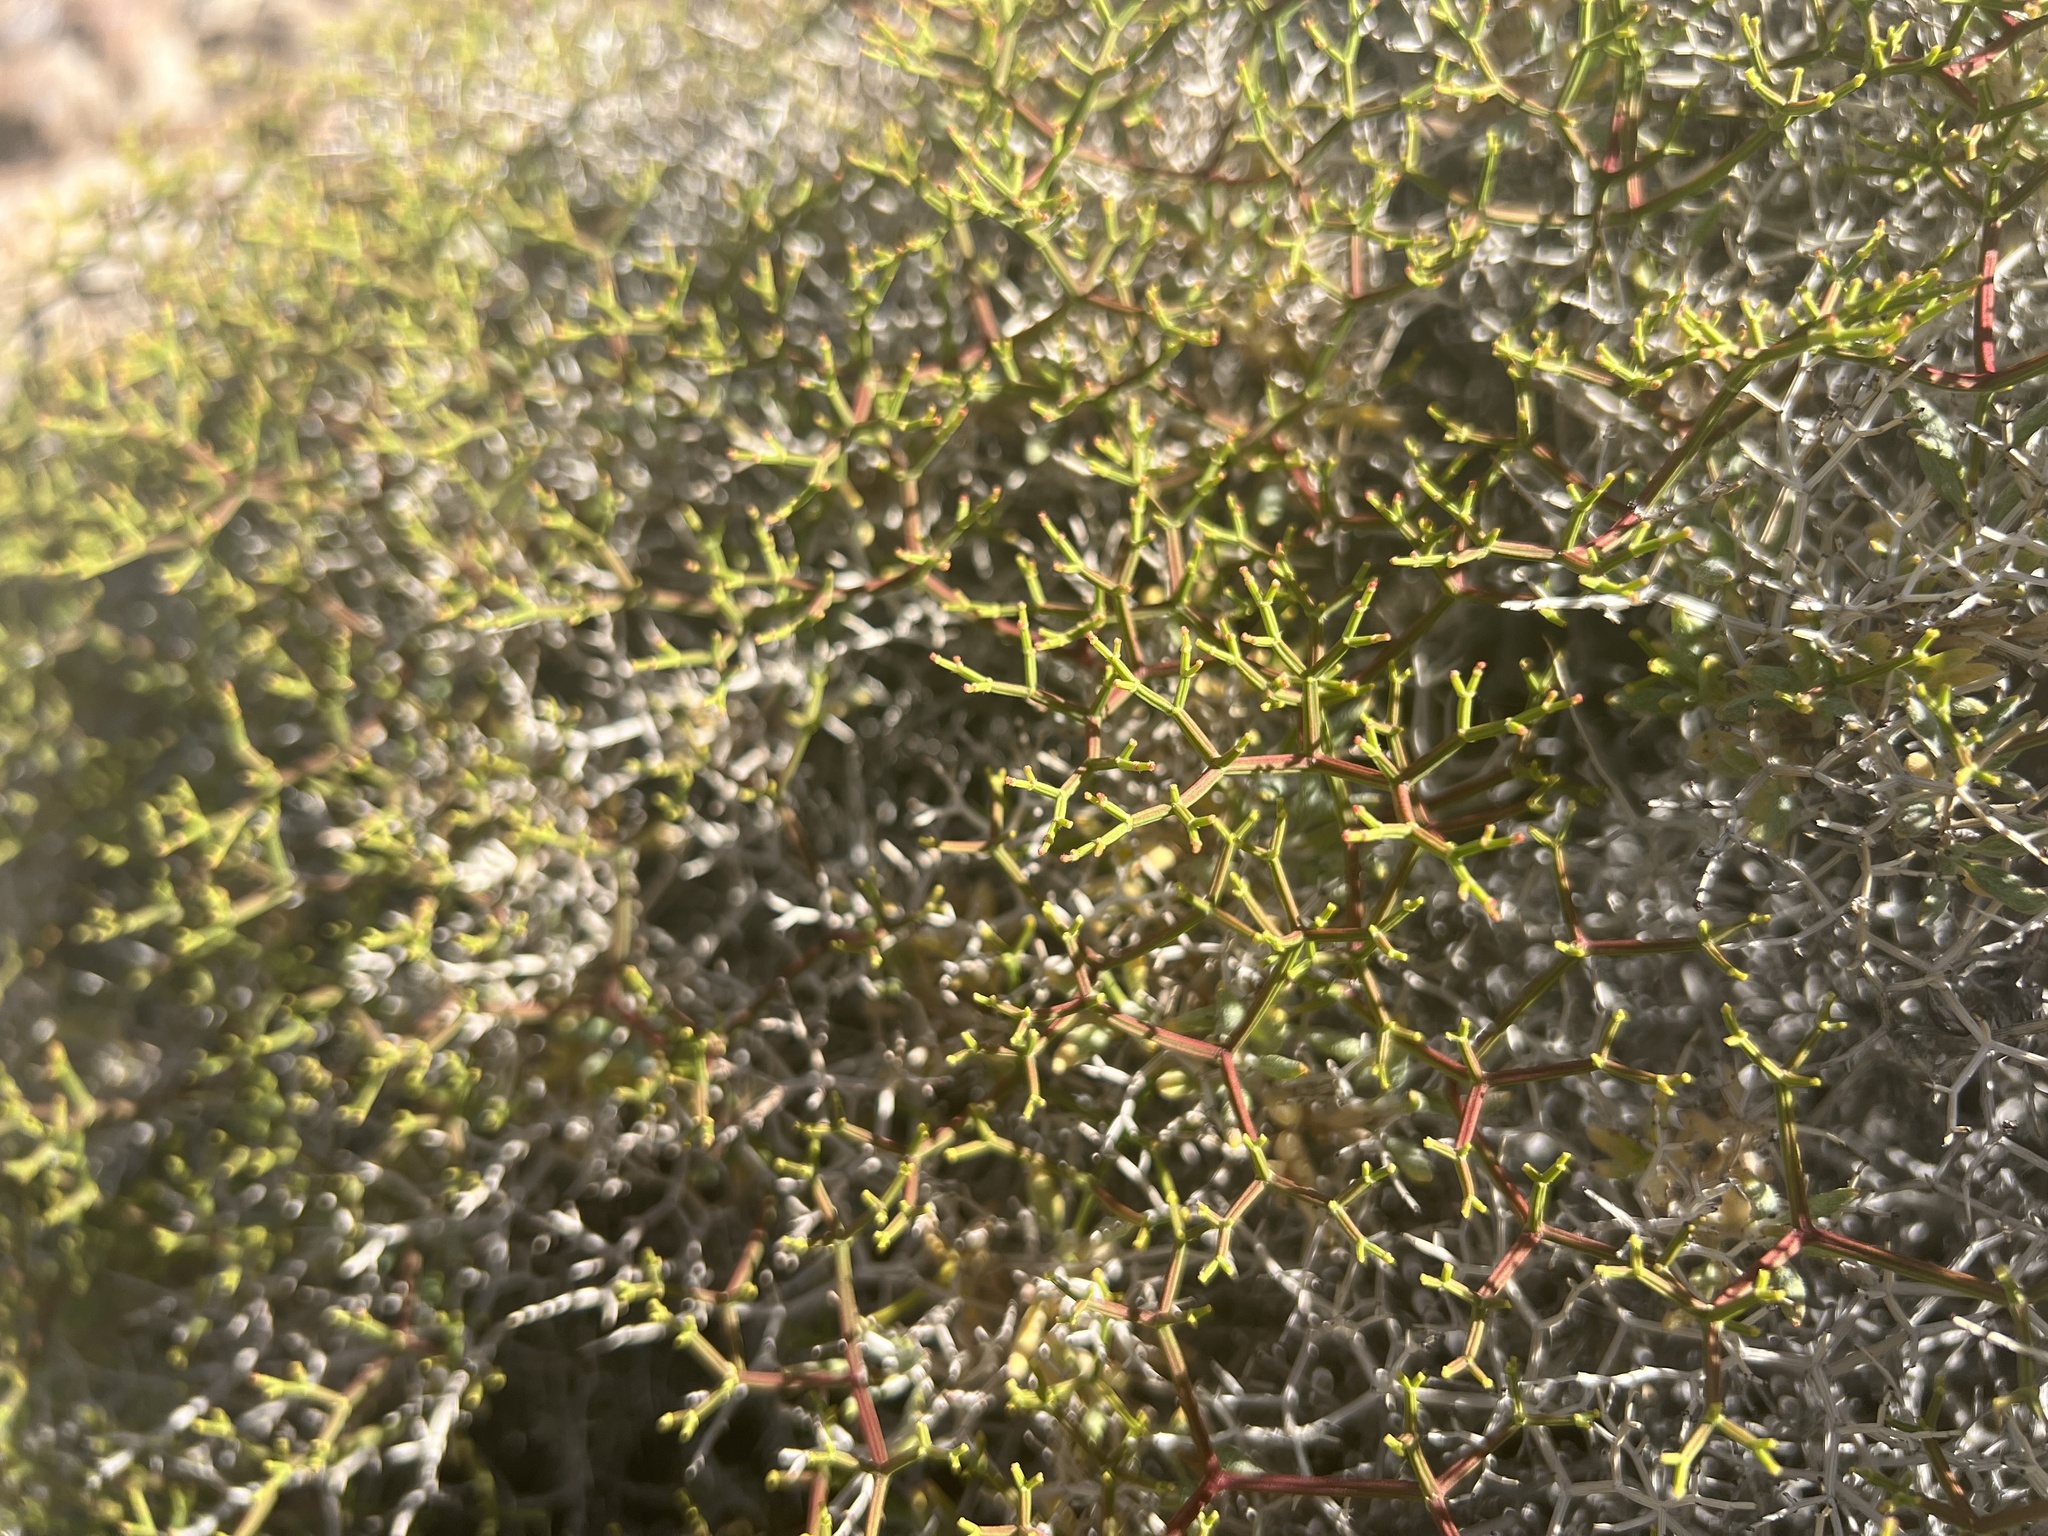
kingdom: Plantae
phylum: Tracheophyta
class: Magnoliopsida
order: Caryophyllales
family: Polygonaceae
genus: Eriogonum
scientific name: Eriogonum heermannii
